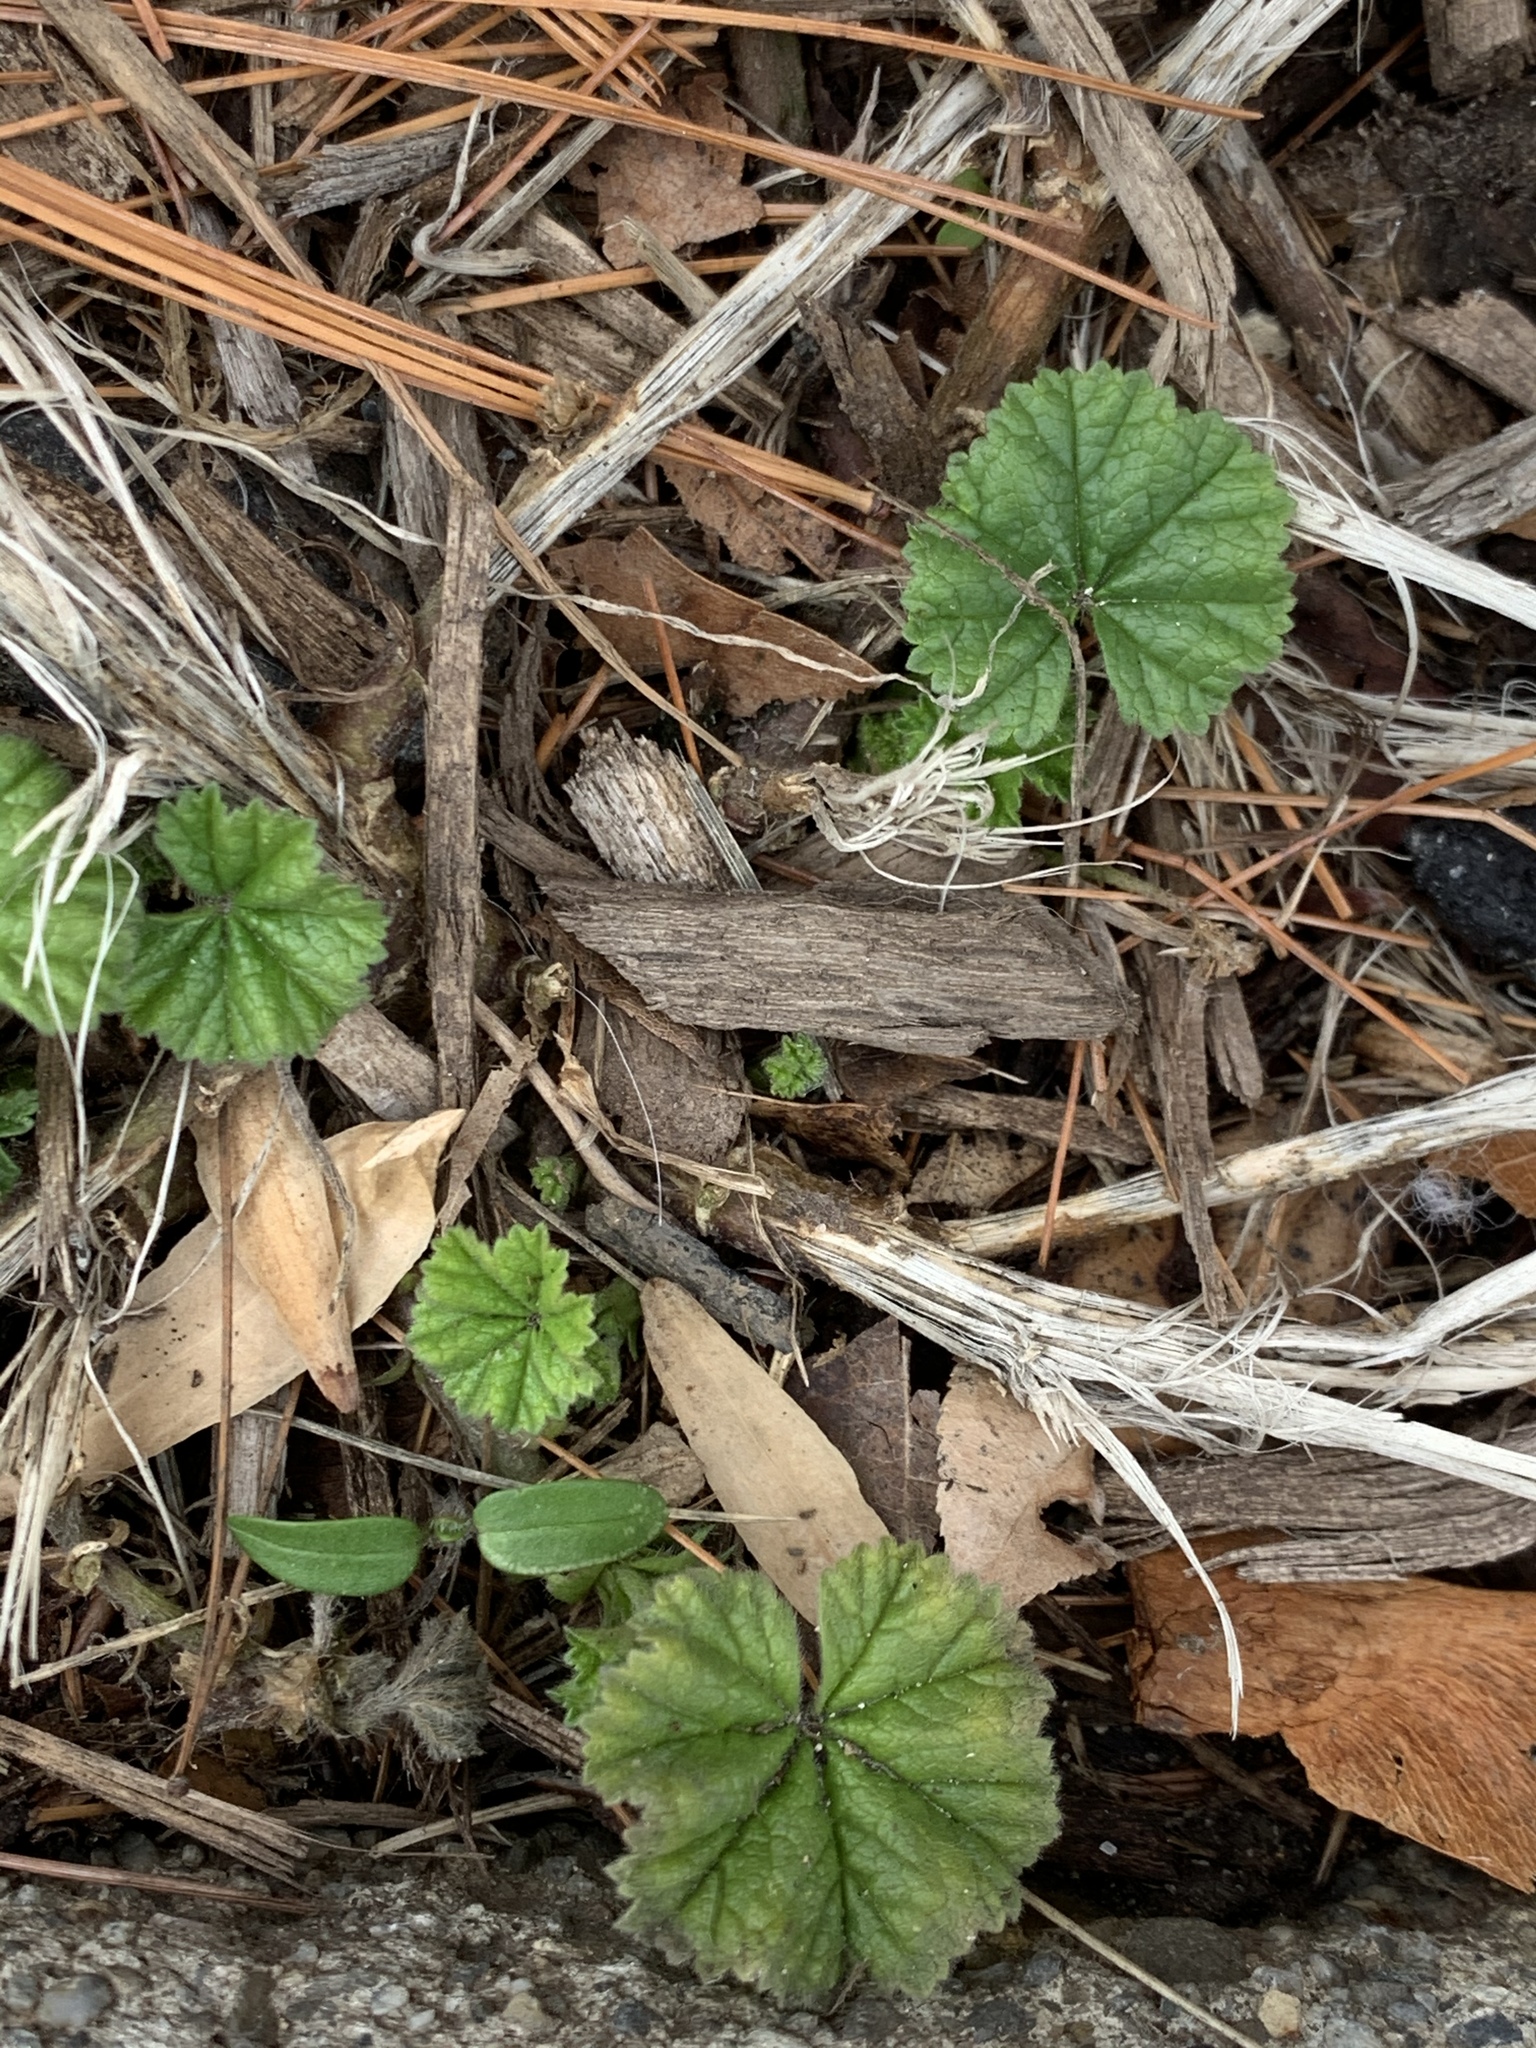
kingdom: Plantae
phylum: Tracheophyta
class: Magnoliopsida
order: Malvales
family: Malvaceae
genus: Malva
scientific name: Malva neglecta
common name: Common mallow
